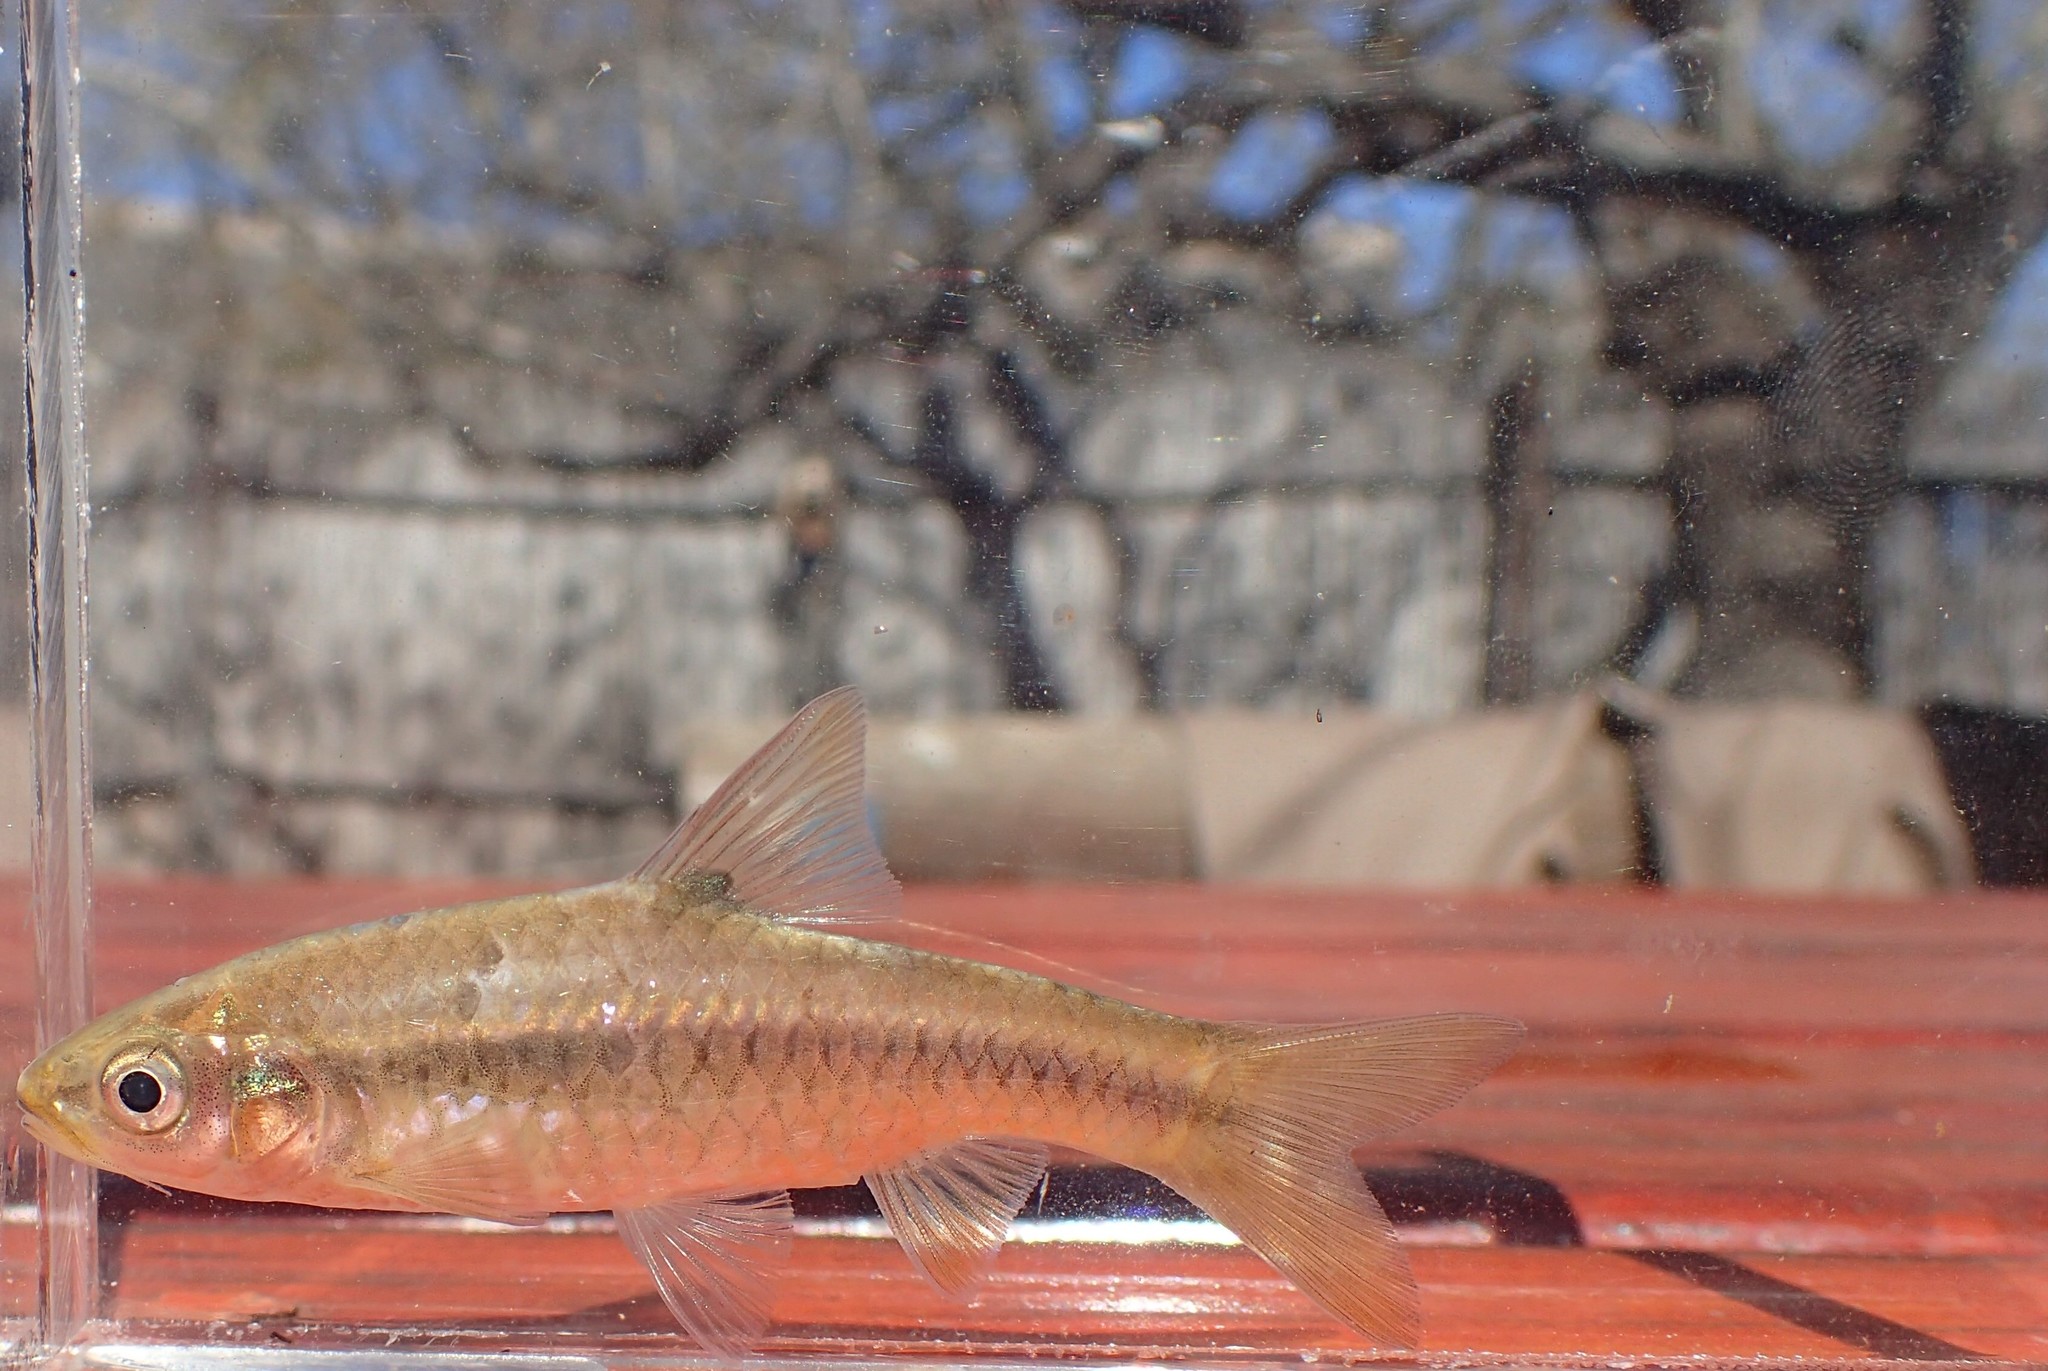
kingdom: Animalia
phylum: Chordata
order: Cypriniformes
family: Cyprinidae
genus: Enteromius
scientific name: Enteromius eutaenia
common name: Orangefin barb
